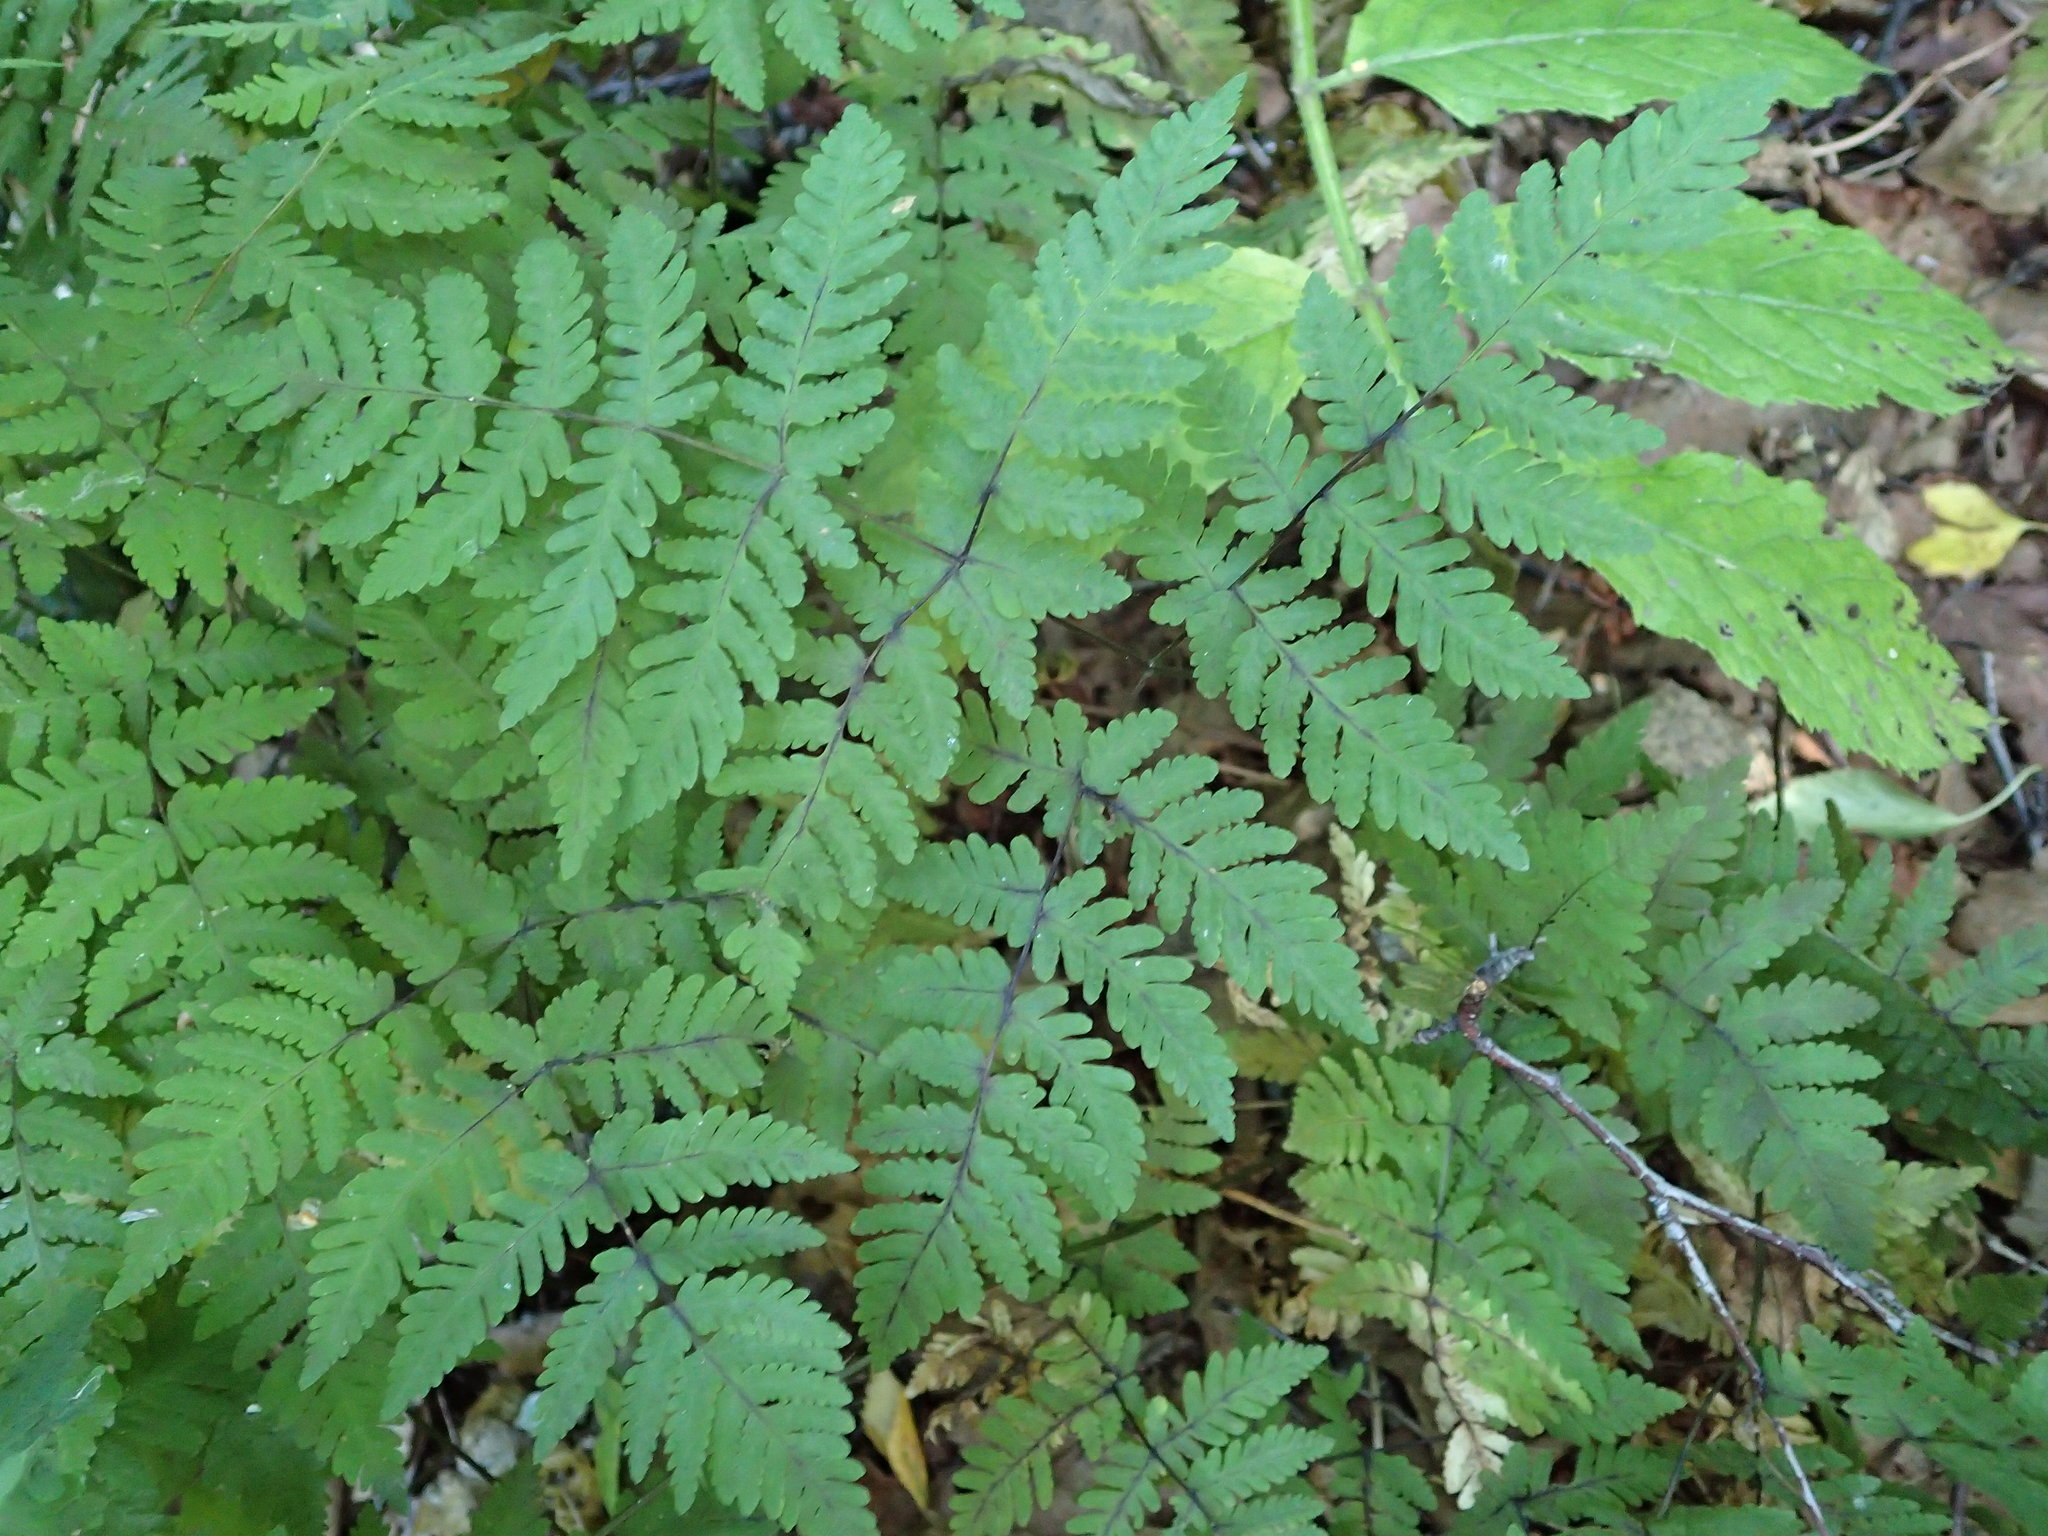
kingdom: Plantae
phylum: Tracheophyta
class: Polypodiopsida
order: Polypodiales
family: Cystopteridaceae
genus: Gymnocarpium
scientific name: Gymnocarpium dryopteris
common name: Oak fern
